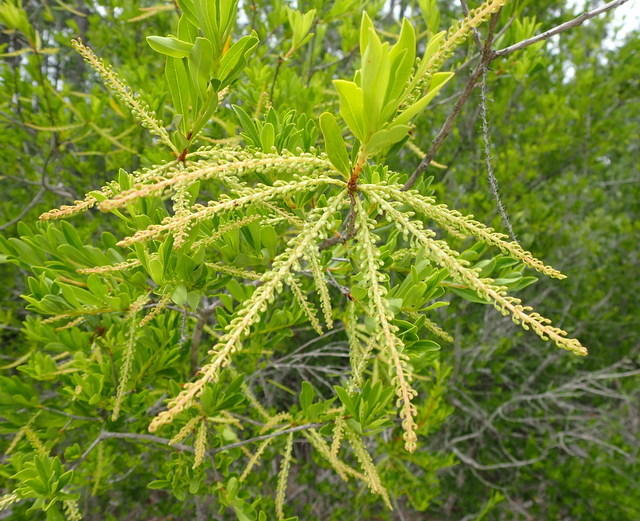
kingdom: Plantae
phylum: Tracheophyta
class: Magnoliopsida
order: Ericales
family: Cyrillaceae
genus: Cyrilla
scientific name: Cyrilla racemiflora
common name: Black titi
